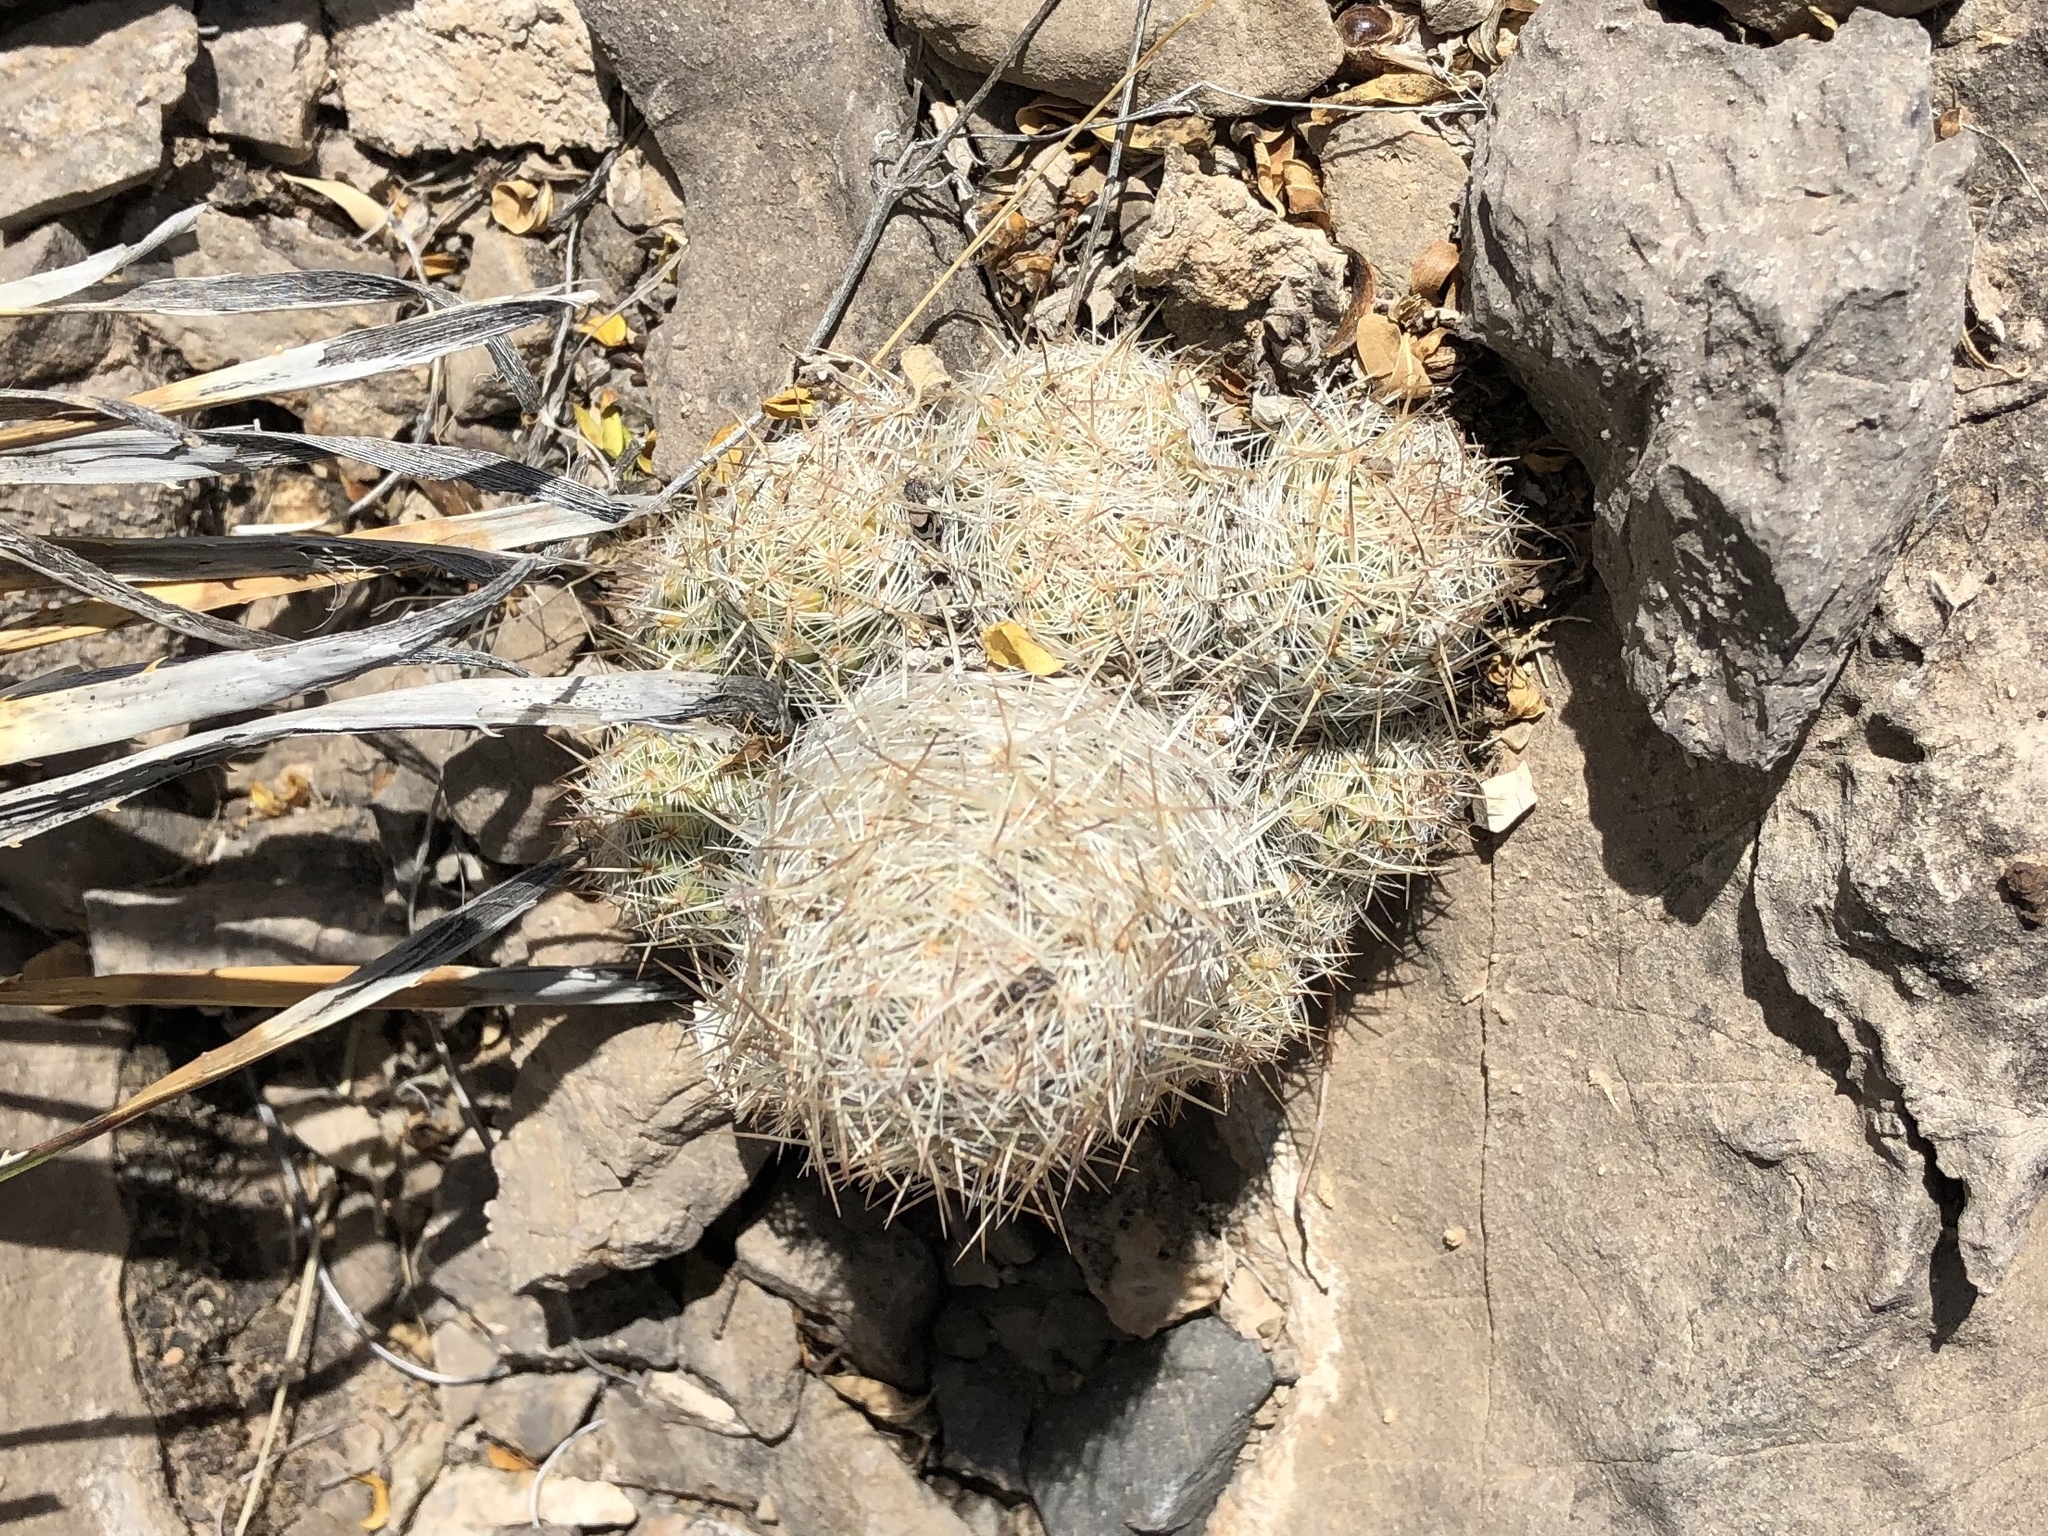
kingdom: Plantae
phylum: Tracheophyta
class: Magnoliopsida
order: Caryophyllales
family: Cactaceae
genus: Pelecyphora
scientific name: Pelecyphora tuberculosa
